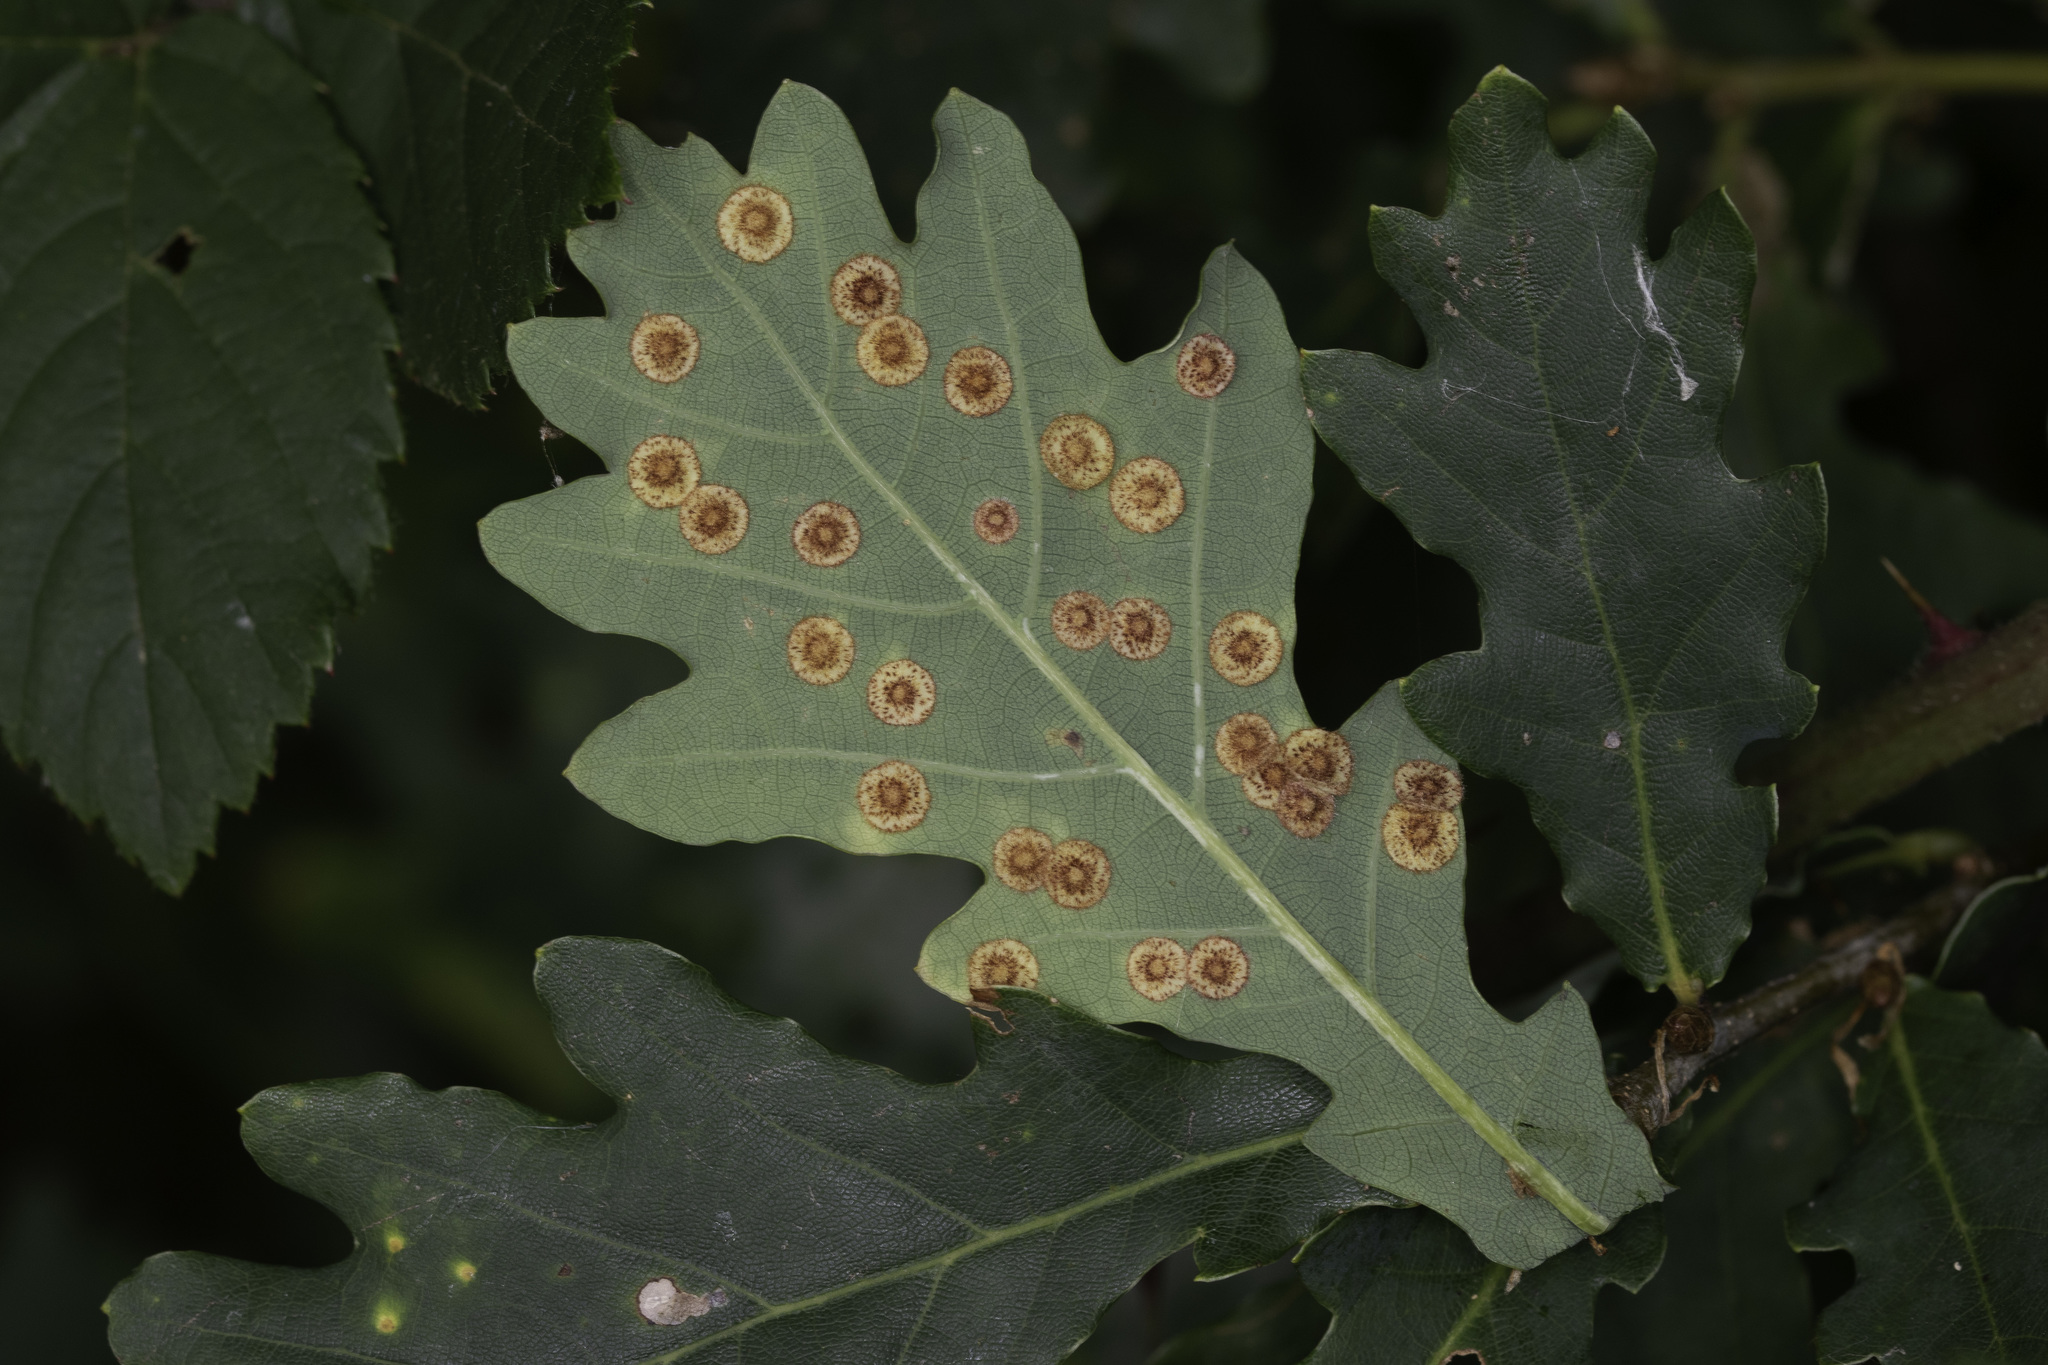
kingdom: Animalia
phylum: Arthropoda
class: Insecta
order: Hymenoptera
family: Cynipidae
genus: Neuroterus
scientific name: Neuroterus quercusbaccarum
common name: Common spangle gall
